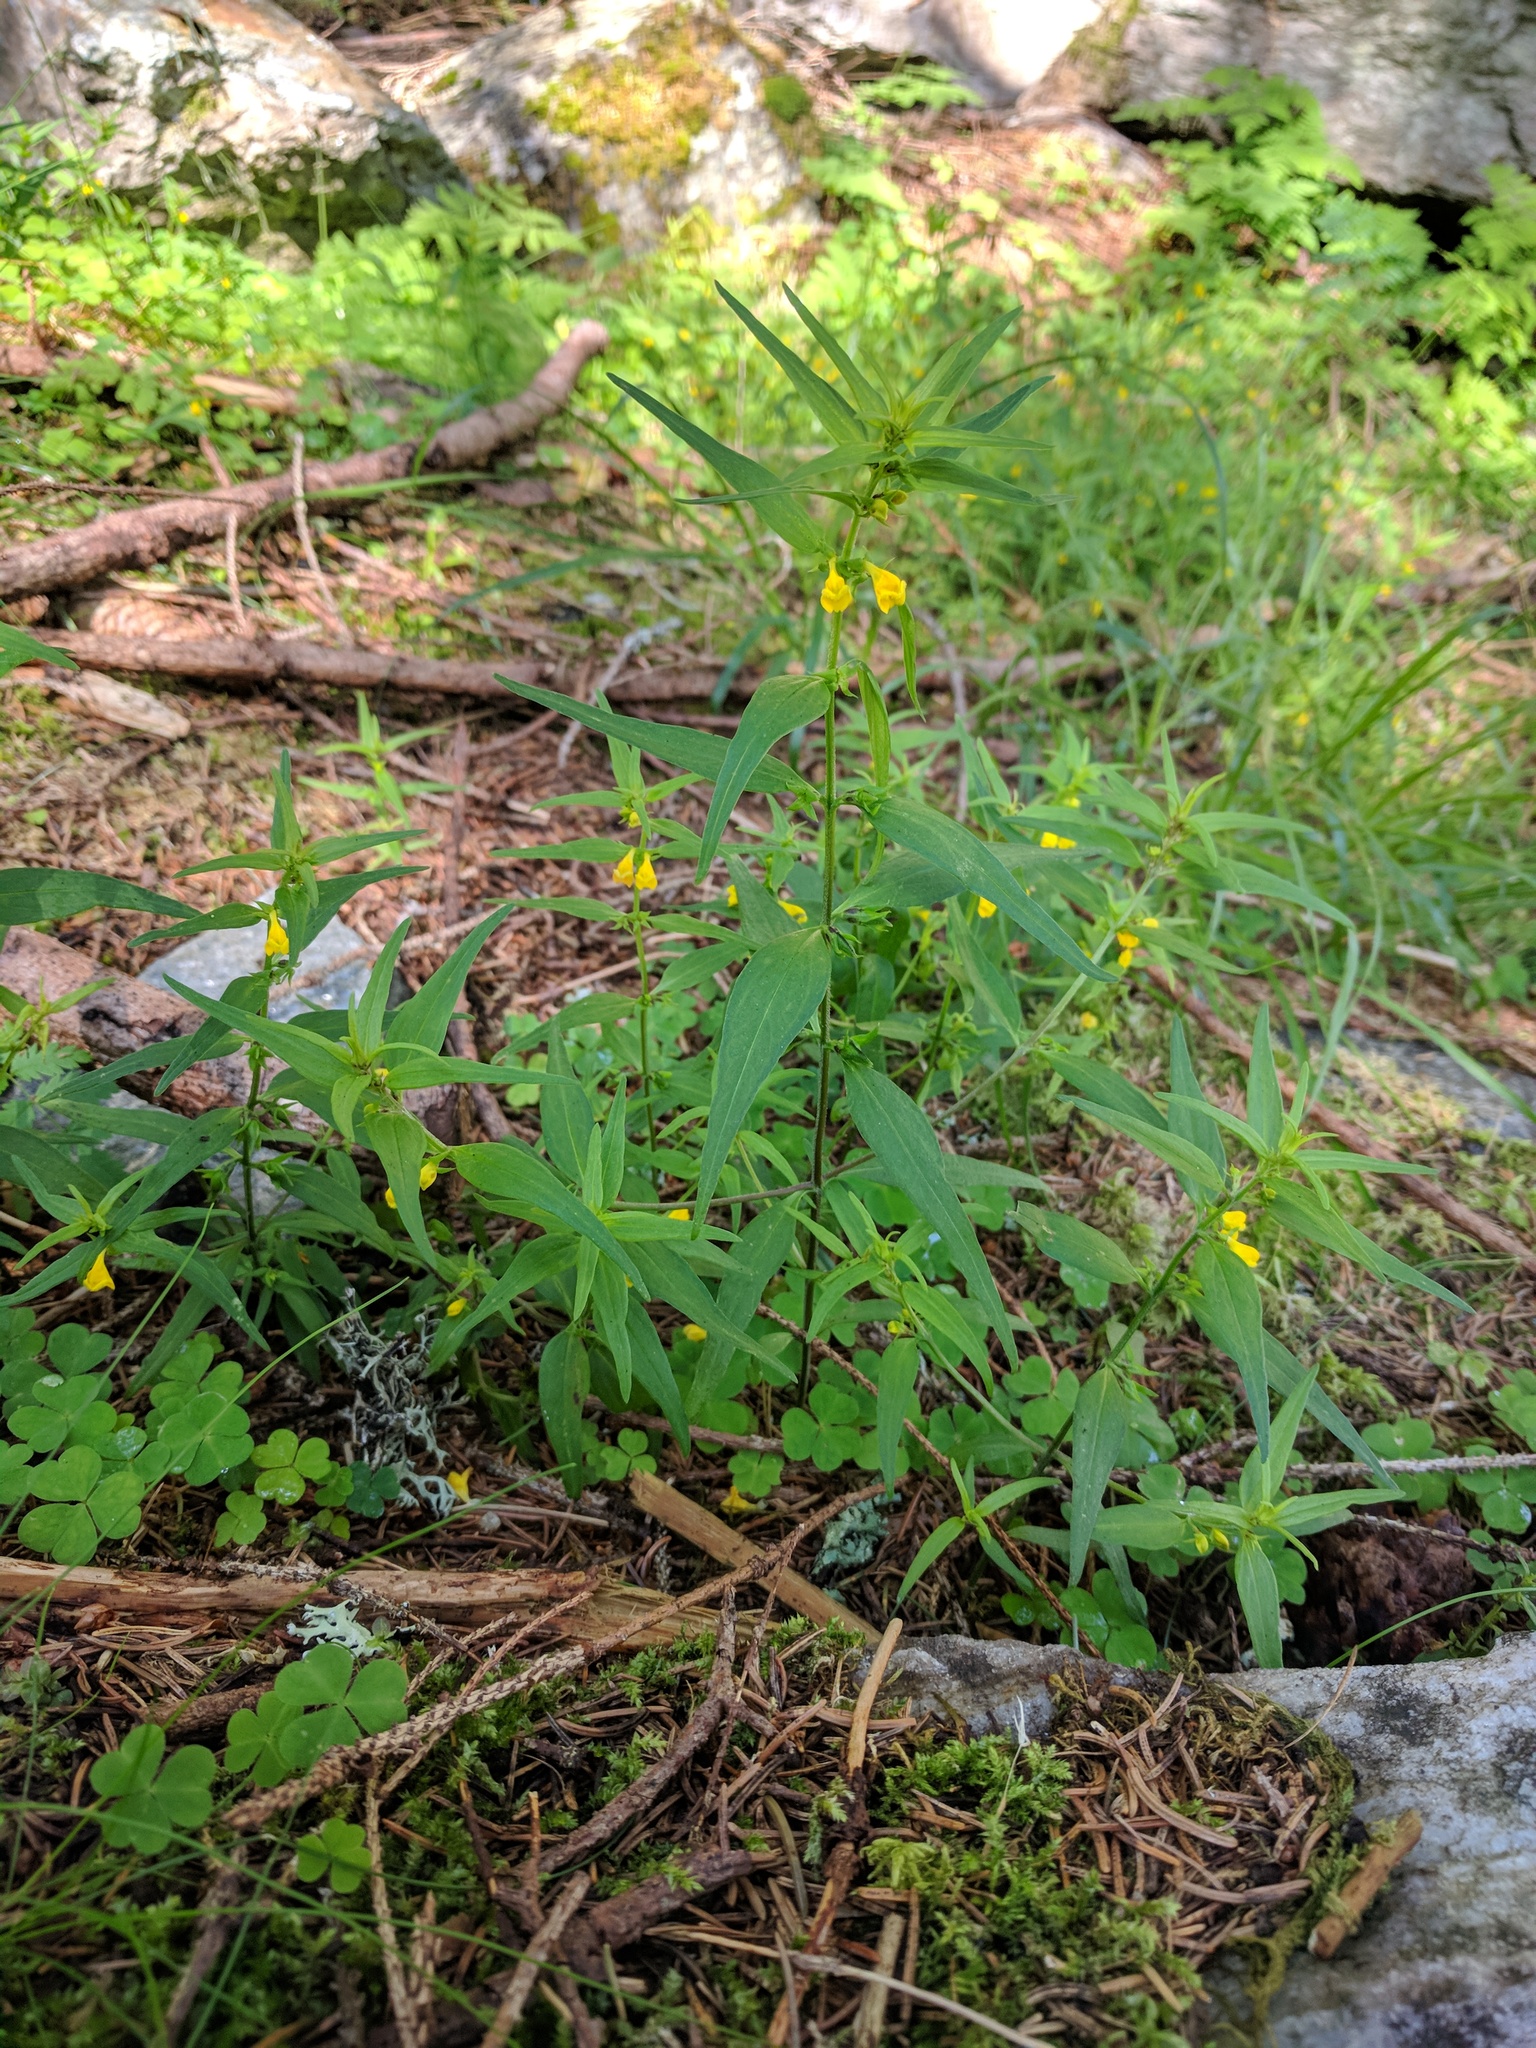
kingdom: Plantae
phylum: Tracheophyta
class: Magnoliopsida
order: Lamiales
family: Orobanchaceae
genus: Melampyrum
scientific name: Melampyrum sylvaticum
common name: Small cow-wheat
